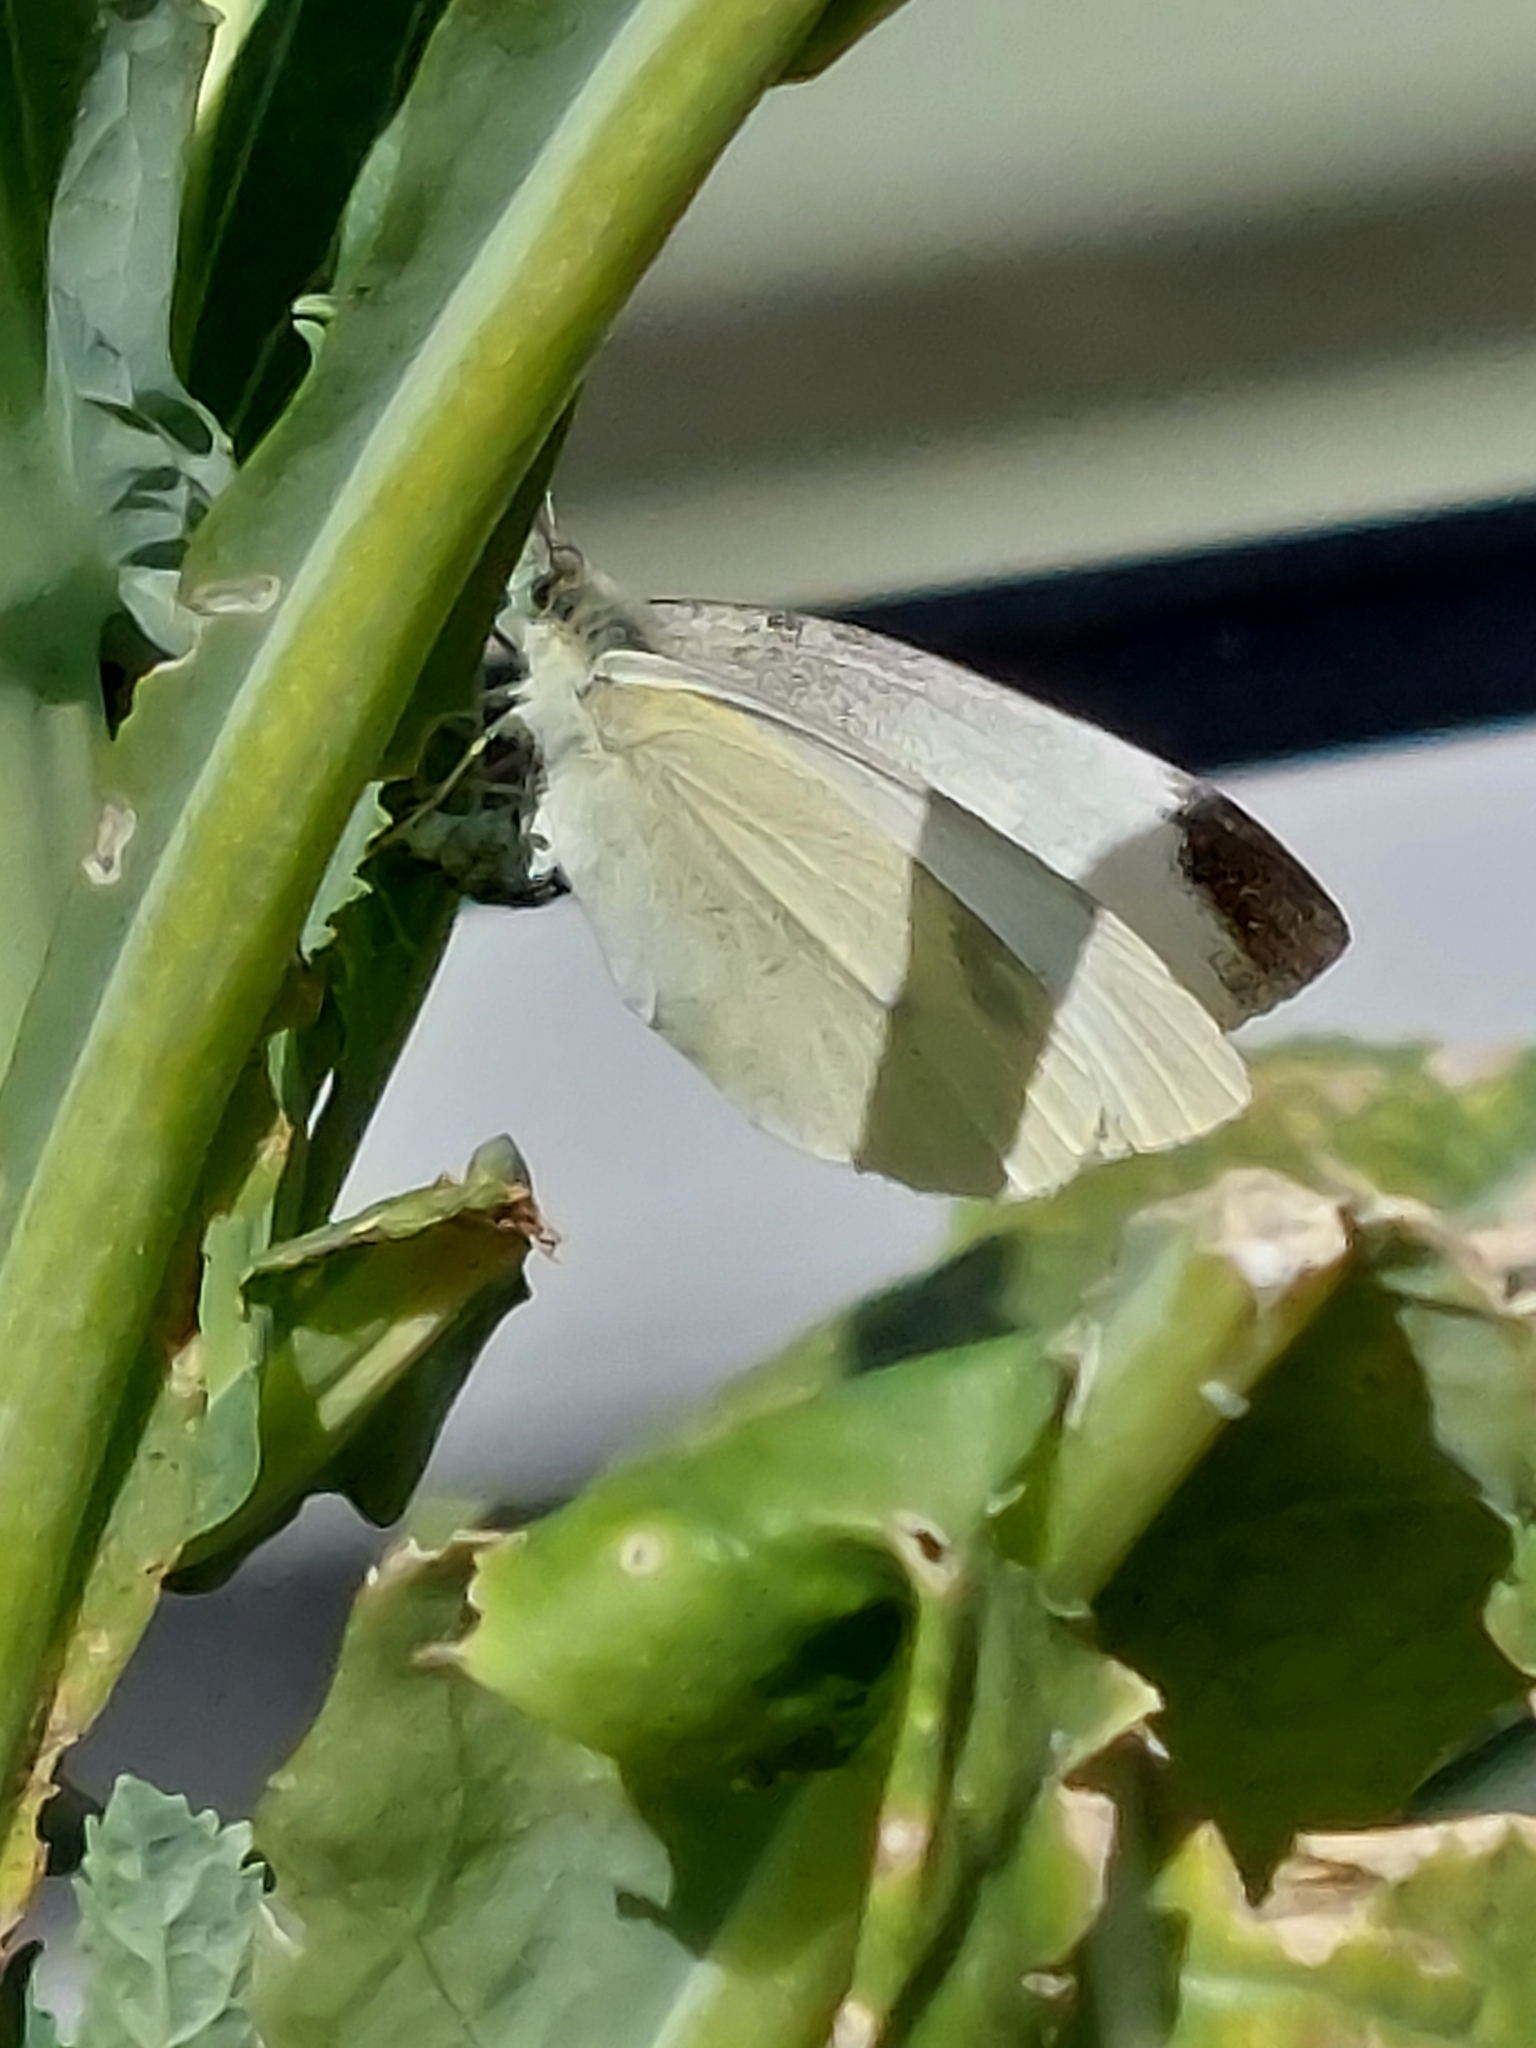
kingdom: Animalia
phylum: Arthropoda
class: Insecta
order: Lepidoptera
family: Pieridae
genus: Pieris
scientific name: Pieris rapae
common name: Small white
